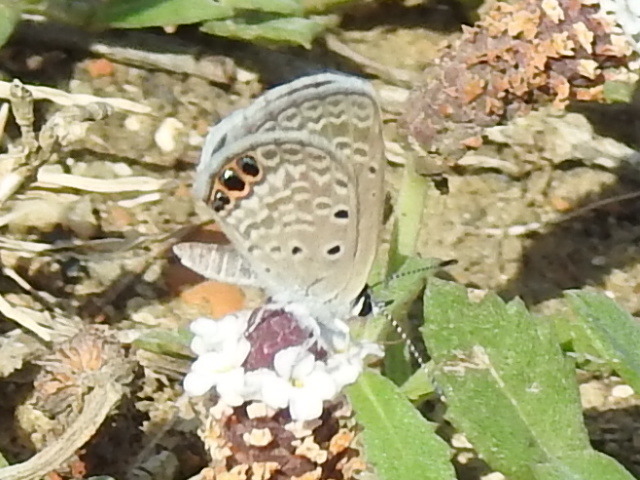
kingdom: Animalia
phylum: Arthropoda
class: Insecta
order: Lepidoptera
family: Lycaenidae
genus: Hemiargus
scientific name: Hemiargus ceraunus
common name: Ceraunus blue
